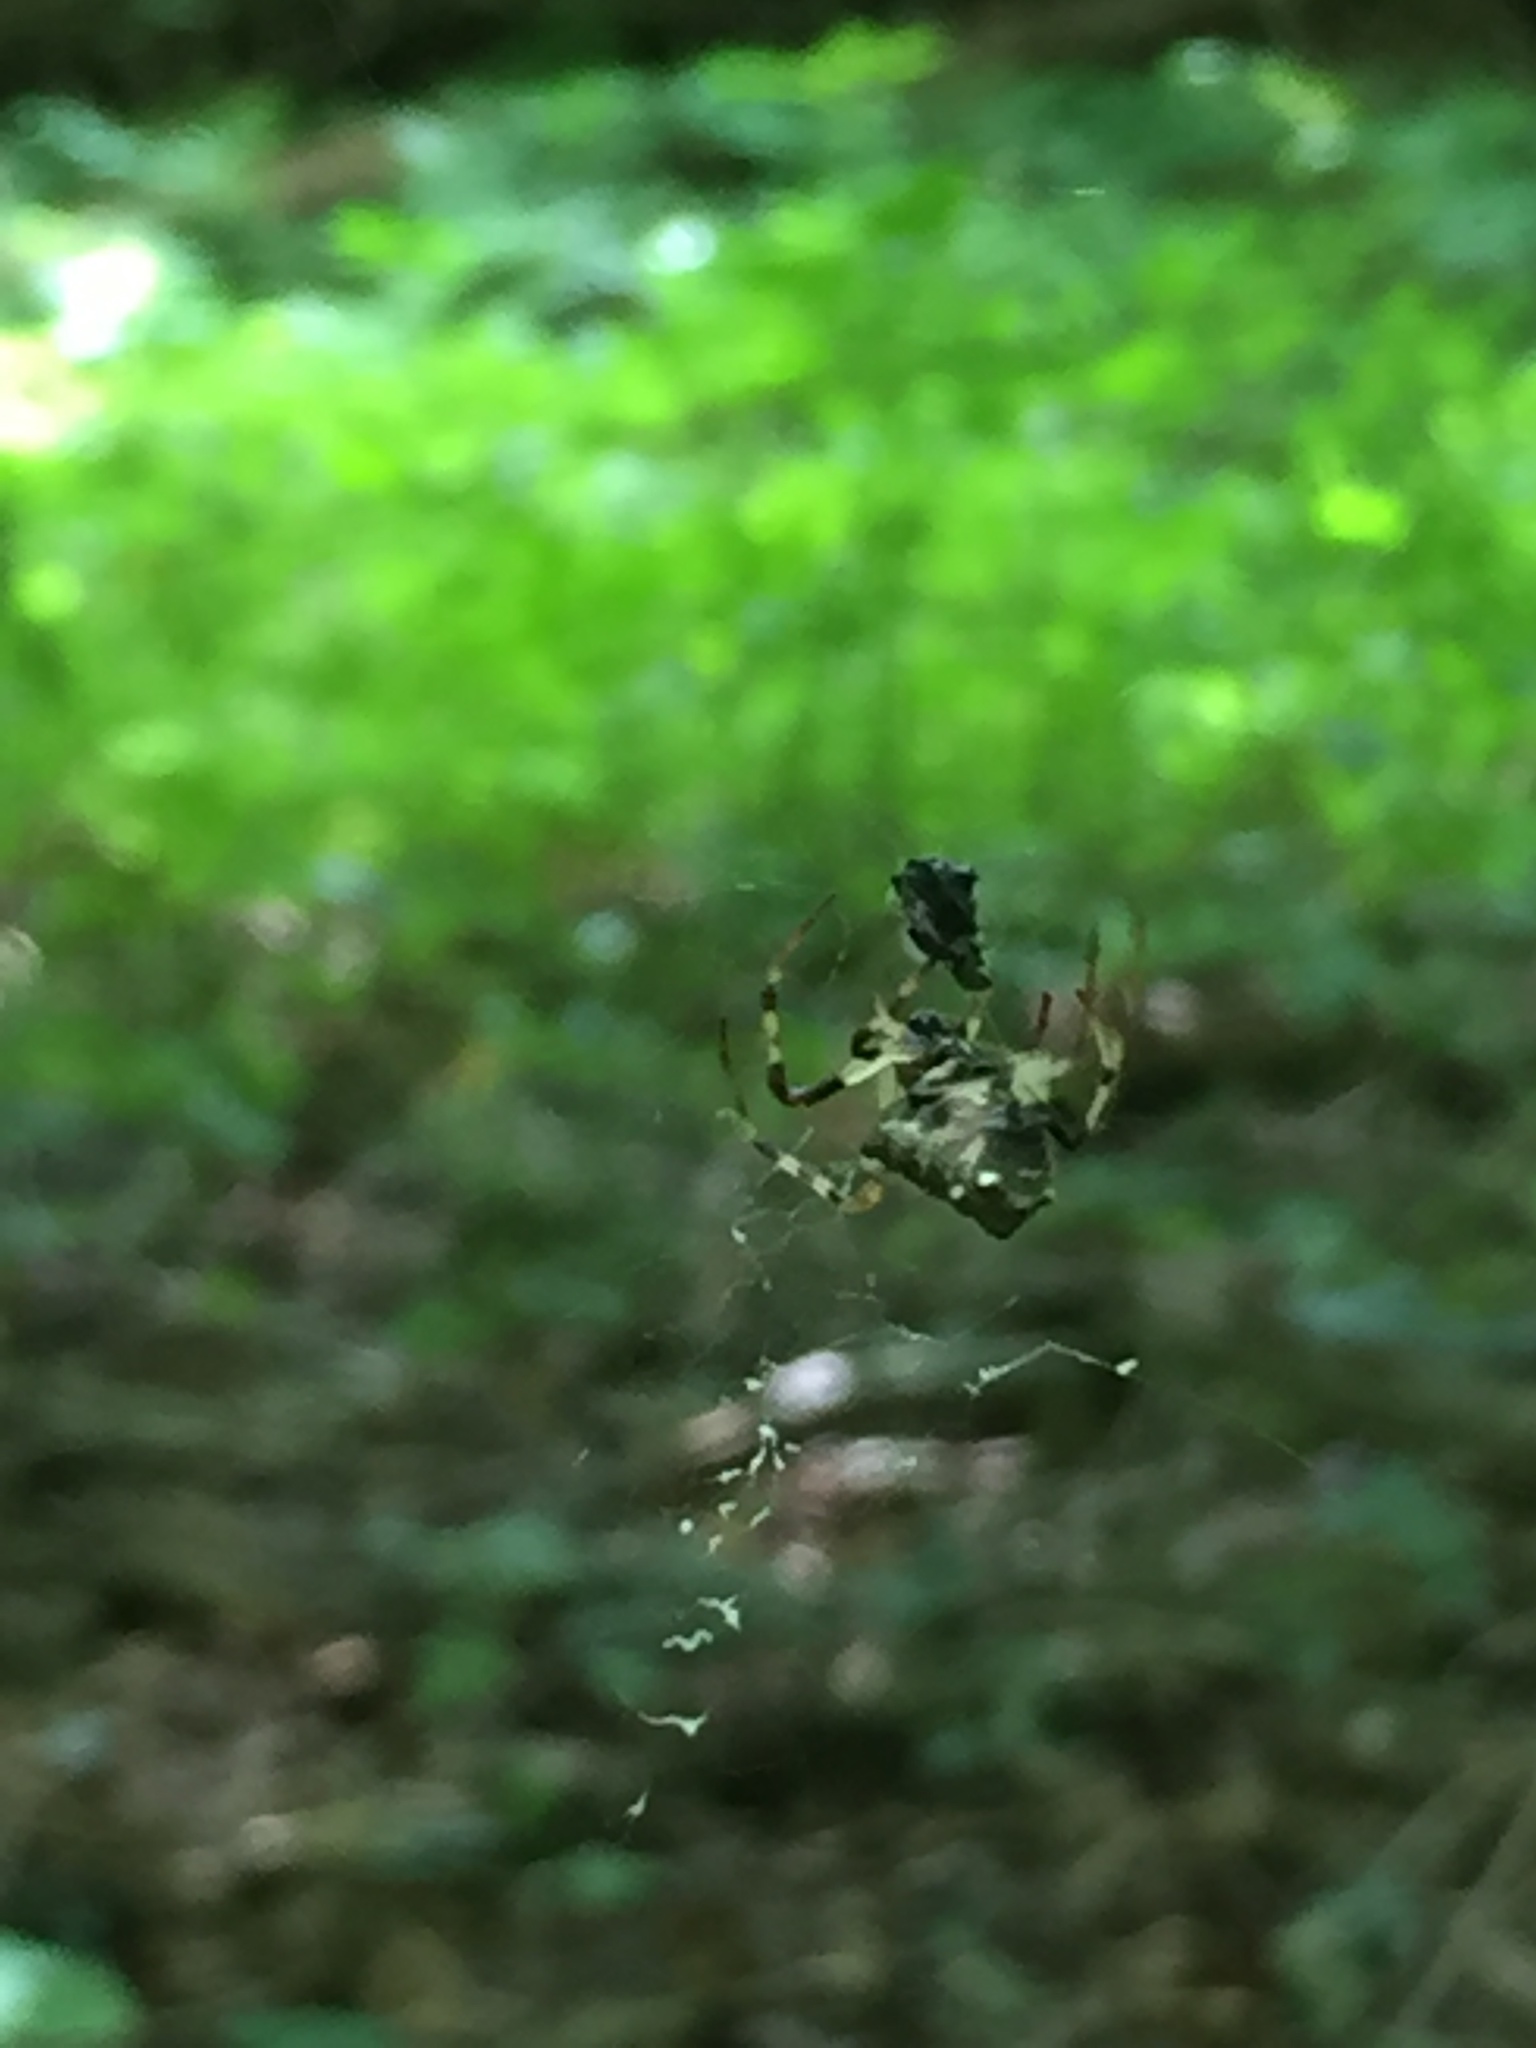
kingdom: Animalia
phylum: Arthropoda
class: Arachnida
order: Araneae
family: Araneidae
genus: Verrucosa
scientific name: Verrucosa arenata
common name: Orb weavers
